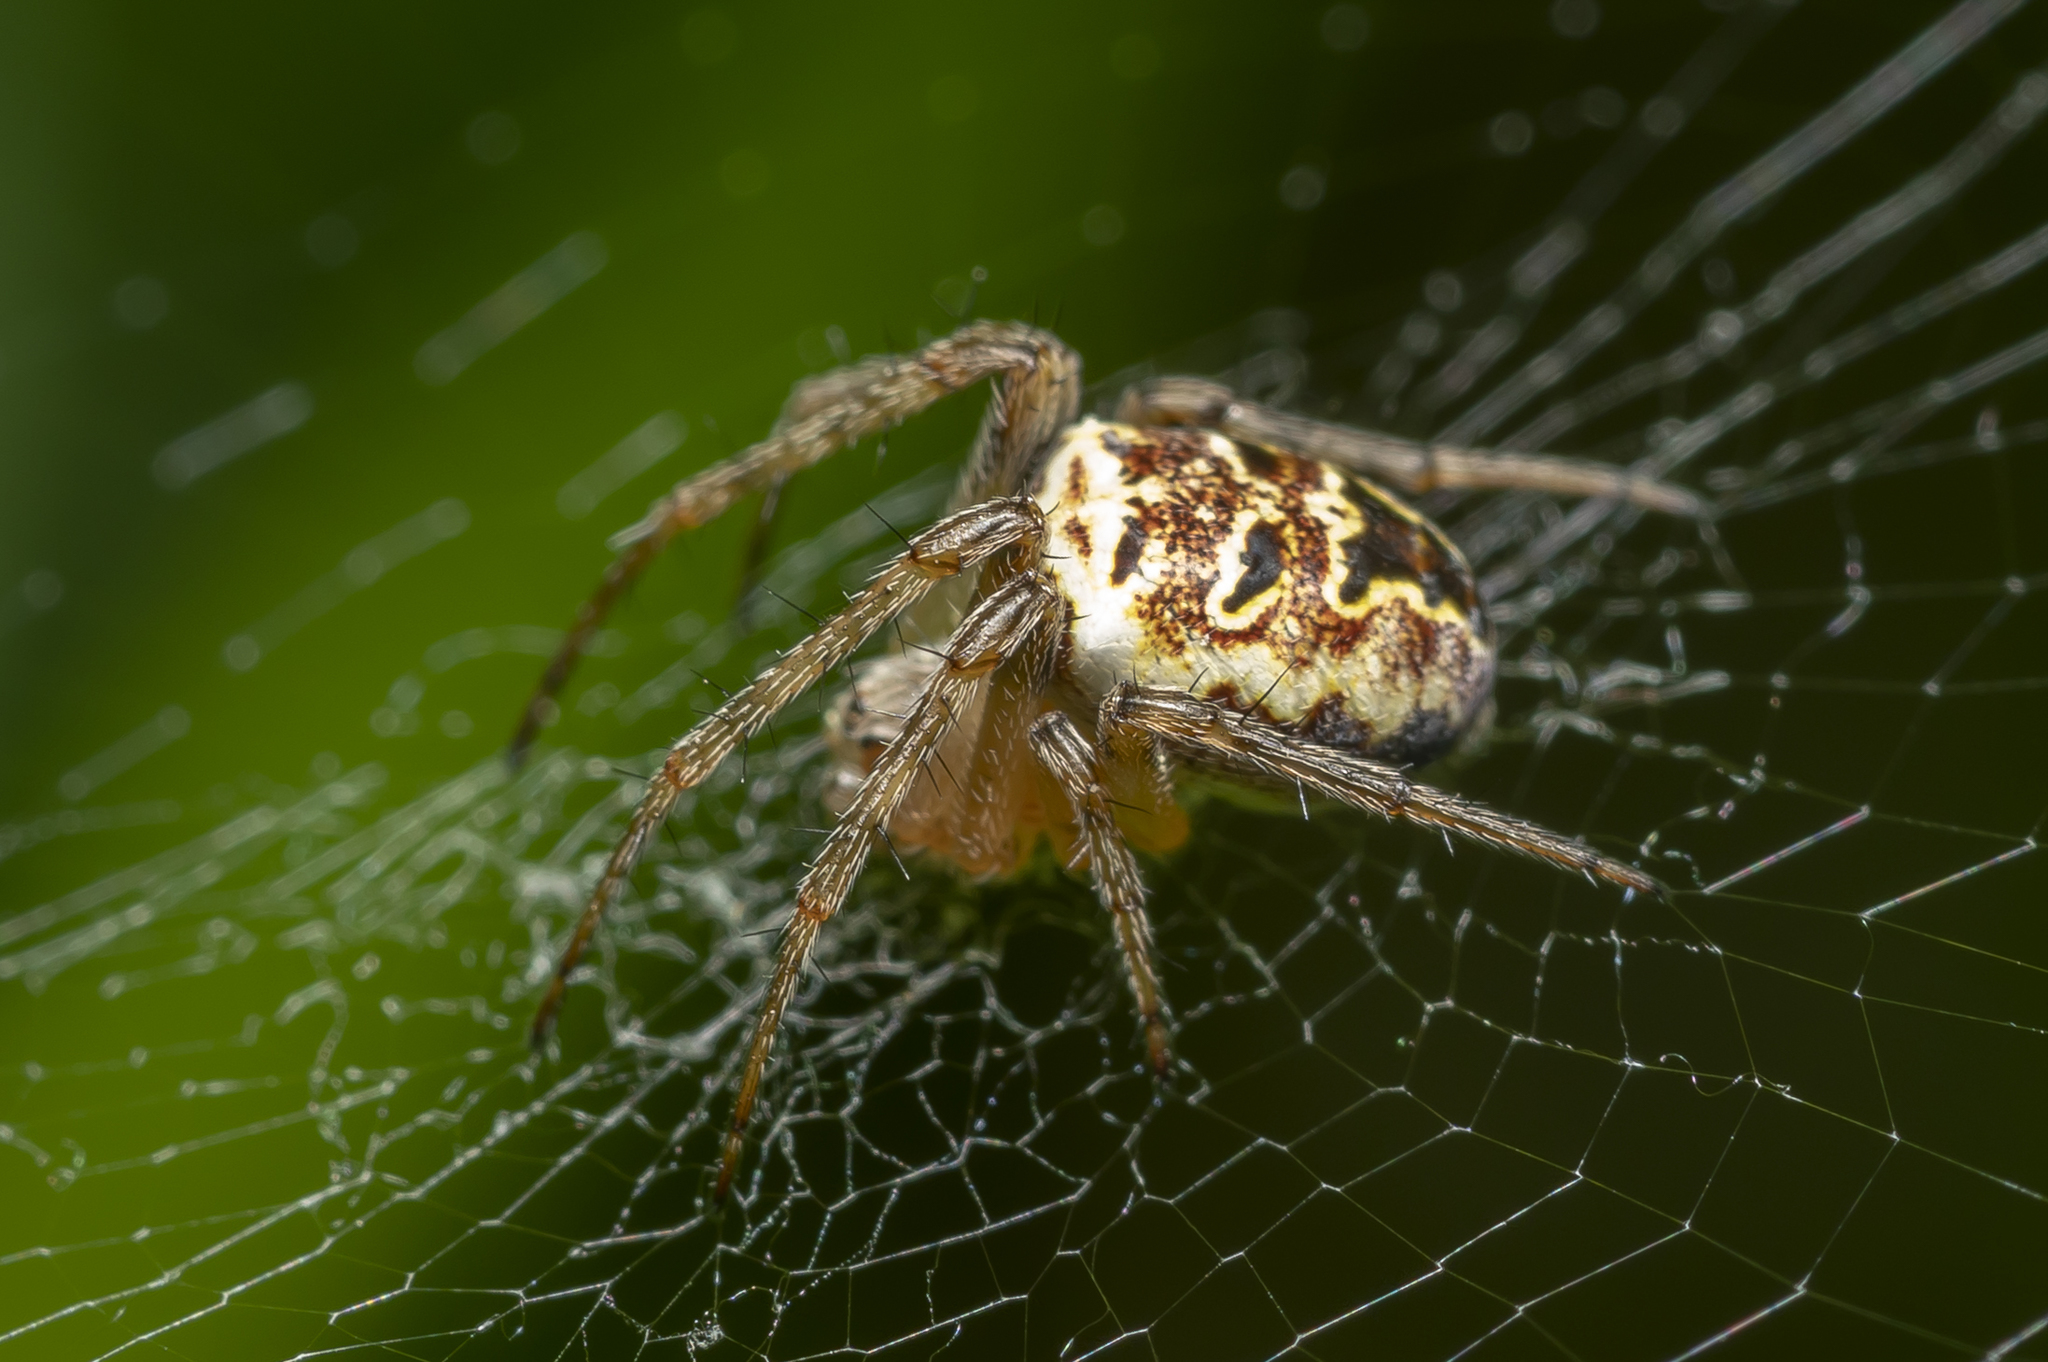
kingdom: Animalia
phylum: Arthropoda
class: Arachnida
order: Araneae
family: Araneidae
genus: Zilla
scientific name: Zilla diodia
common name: Zilla diodia
